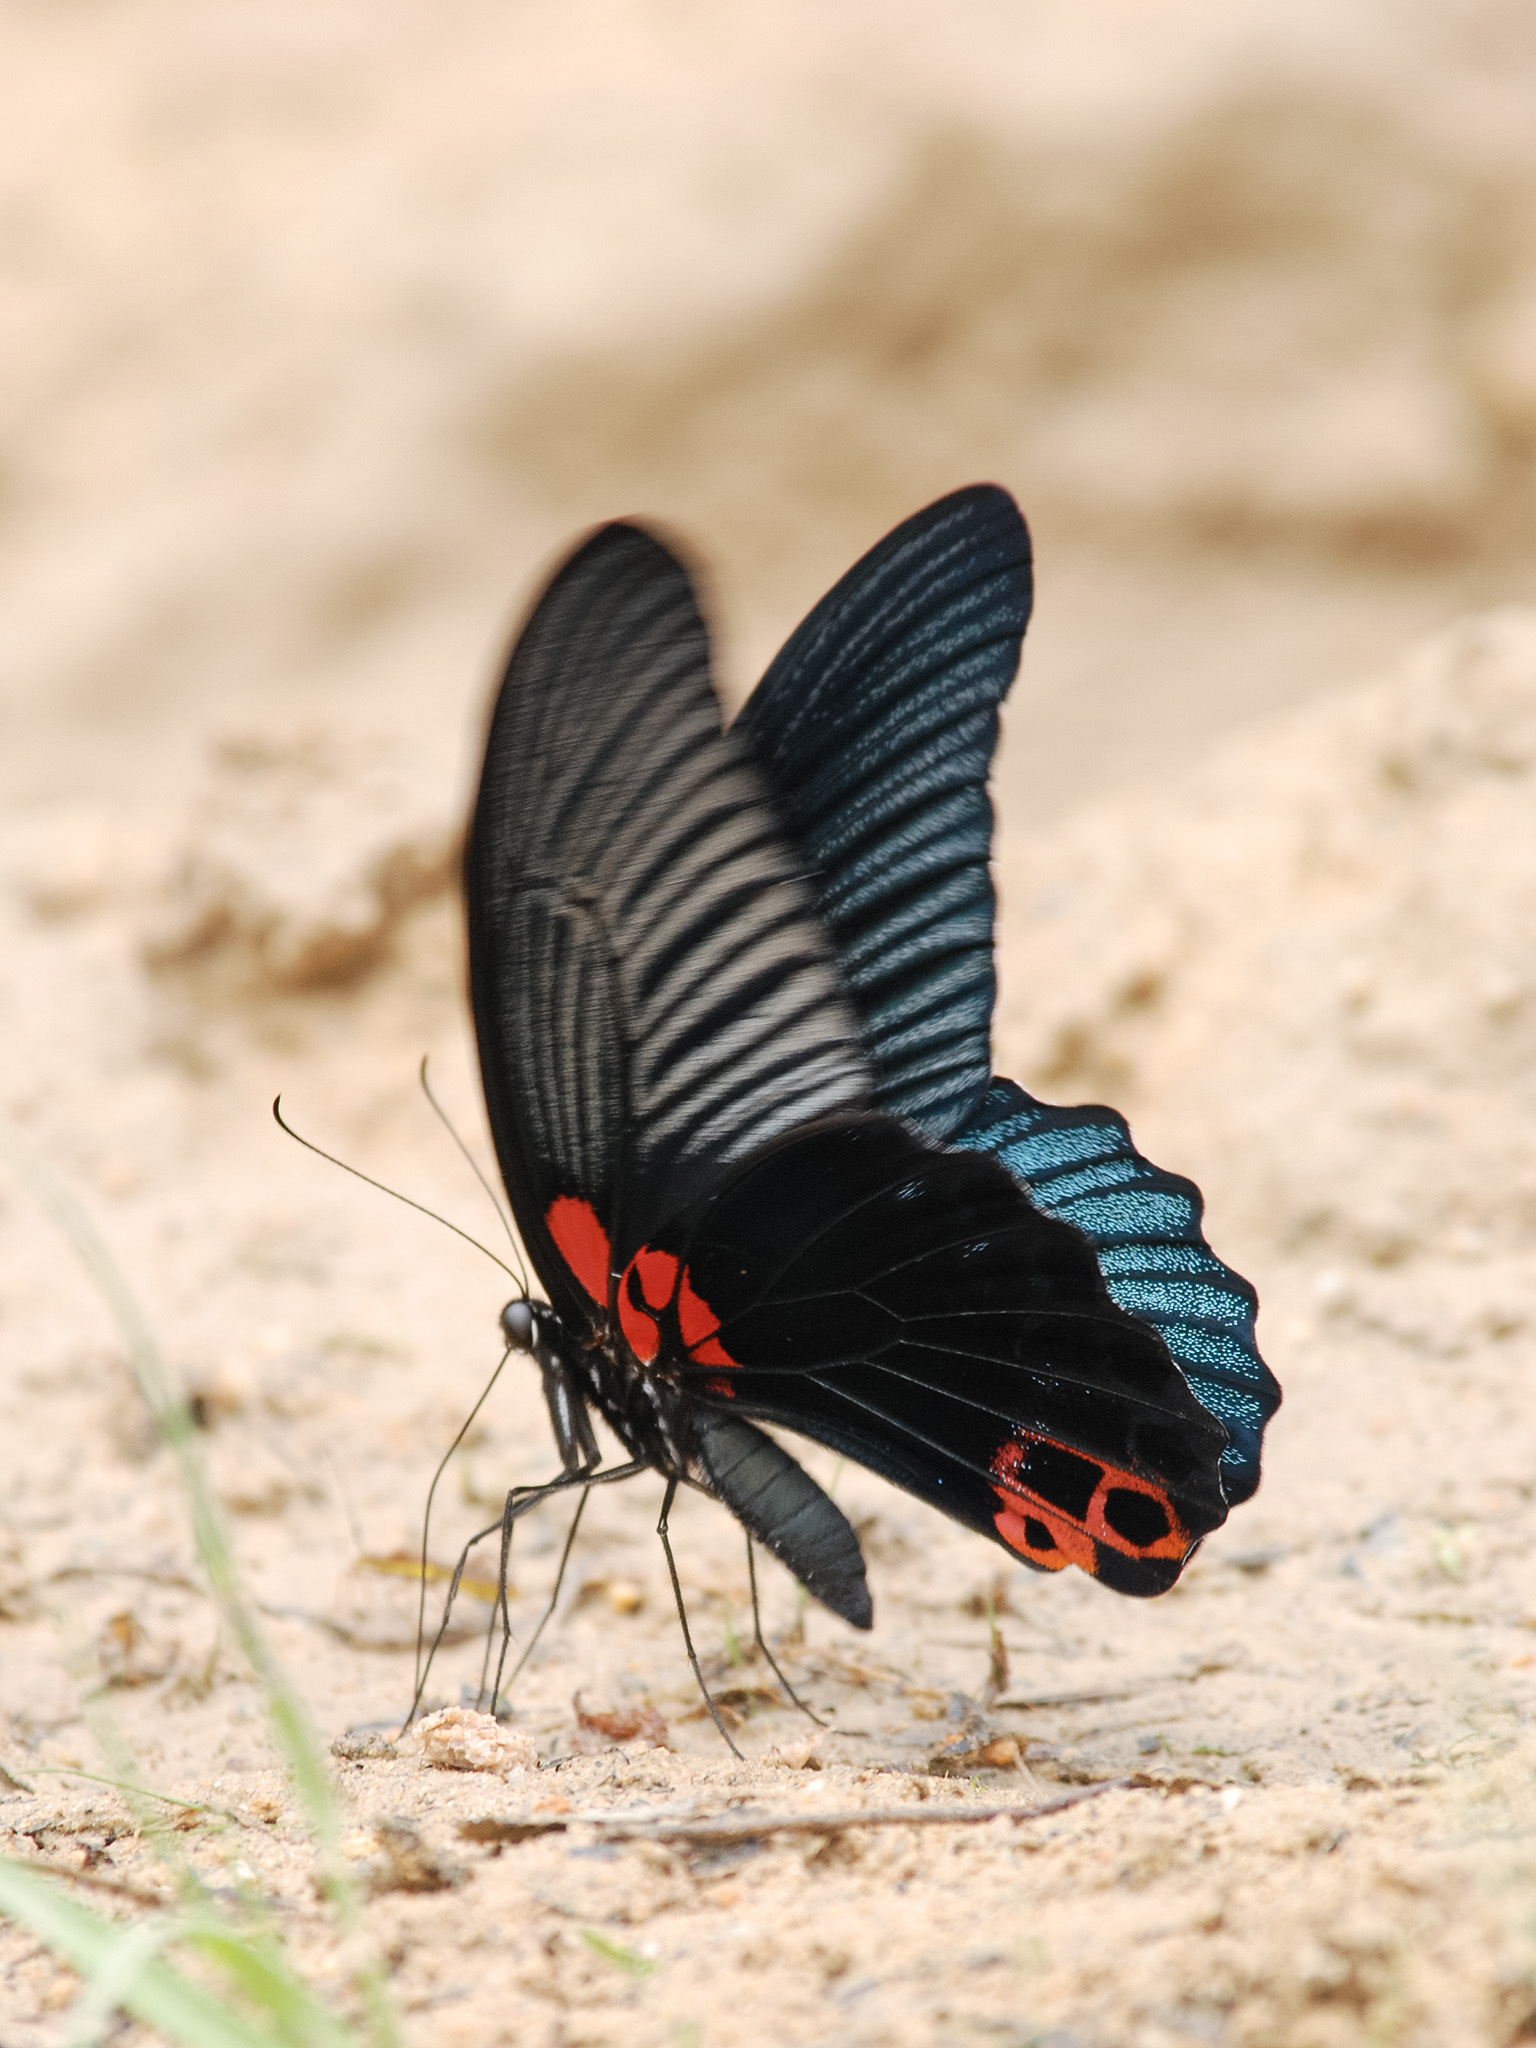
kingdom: Animalia
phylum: Arthropoda
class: Insecta
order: Lepidoptera
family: Papilionidae
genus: Papilio
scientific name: Papilio memnon
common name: Great mormon
